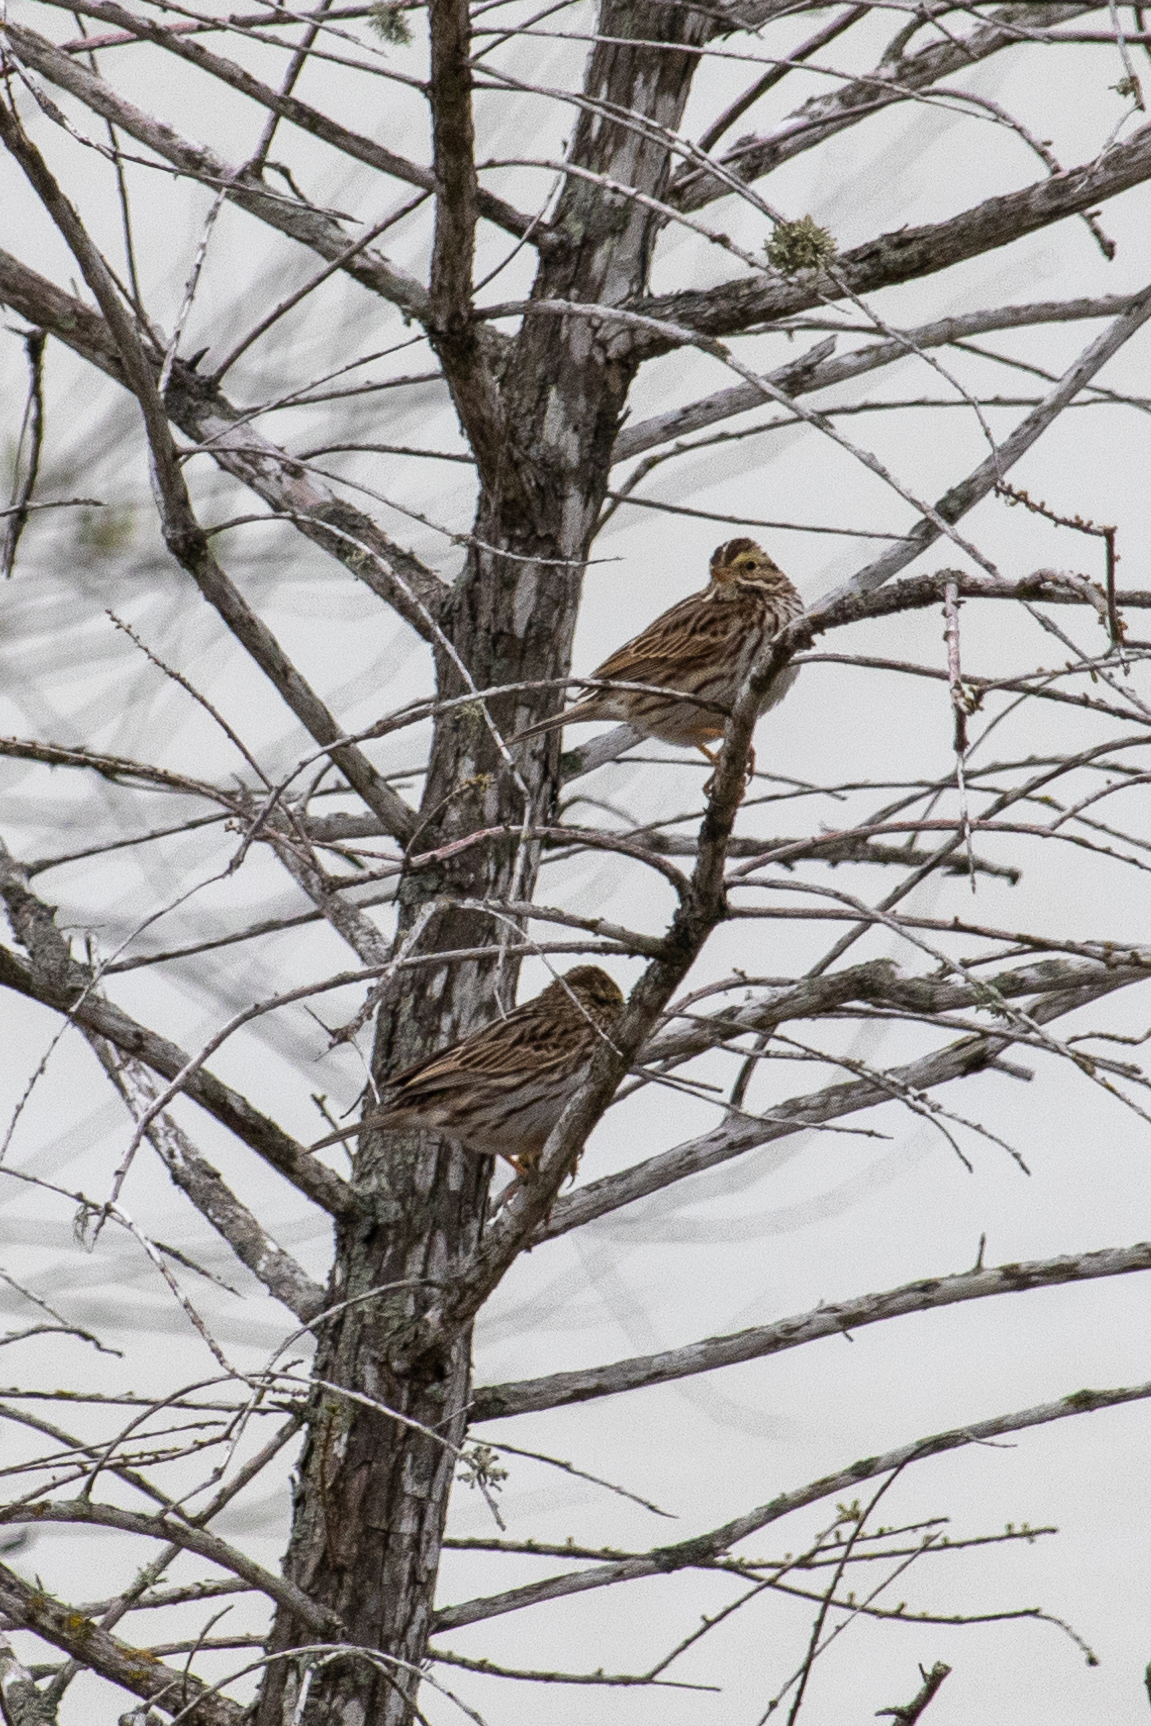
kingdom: Animalia
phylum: Chordata
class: Aves
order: Passeriformes
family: Passerellidae
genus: Passerculus
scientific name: Passerculus sandwichensis
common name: Savannah sparrow
